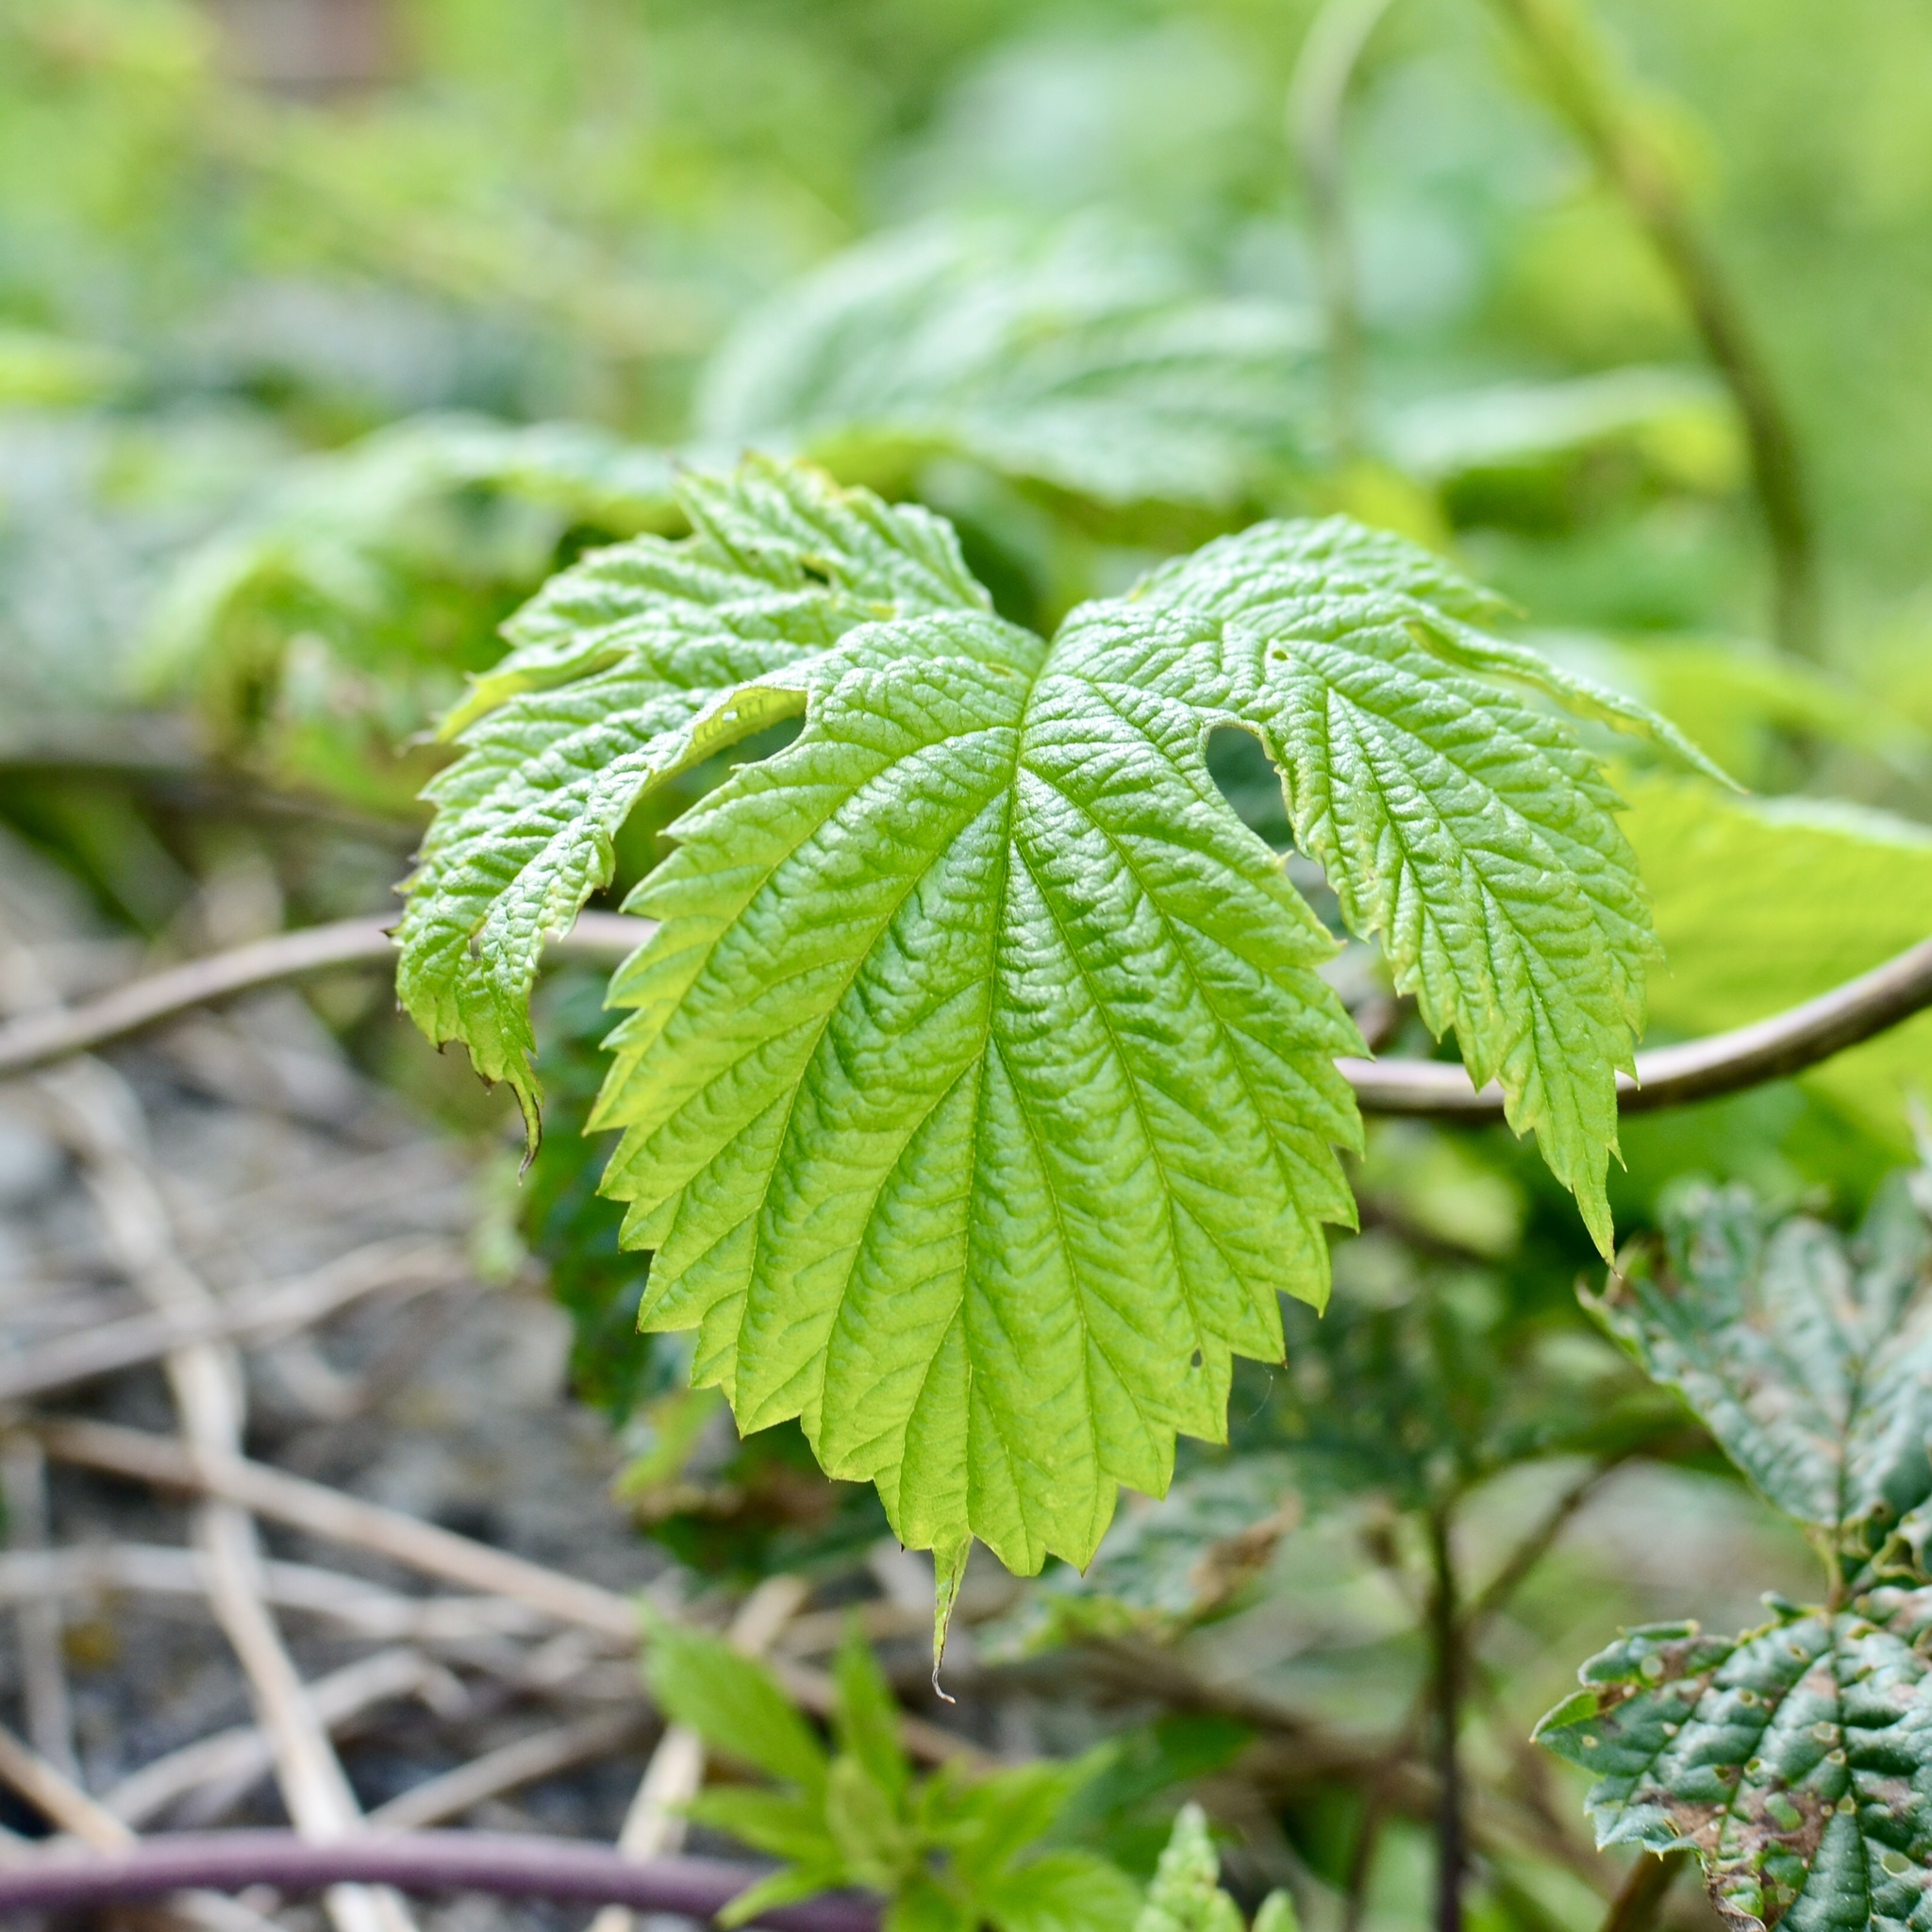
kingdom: Plantae
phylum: Tracheophyta
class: Magnoliopsida
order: Rosales
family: Cannabaceae
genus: Humulus
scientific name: Humulus lupulus
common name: Hop
